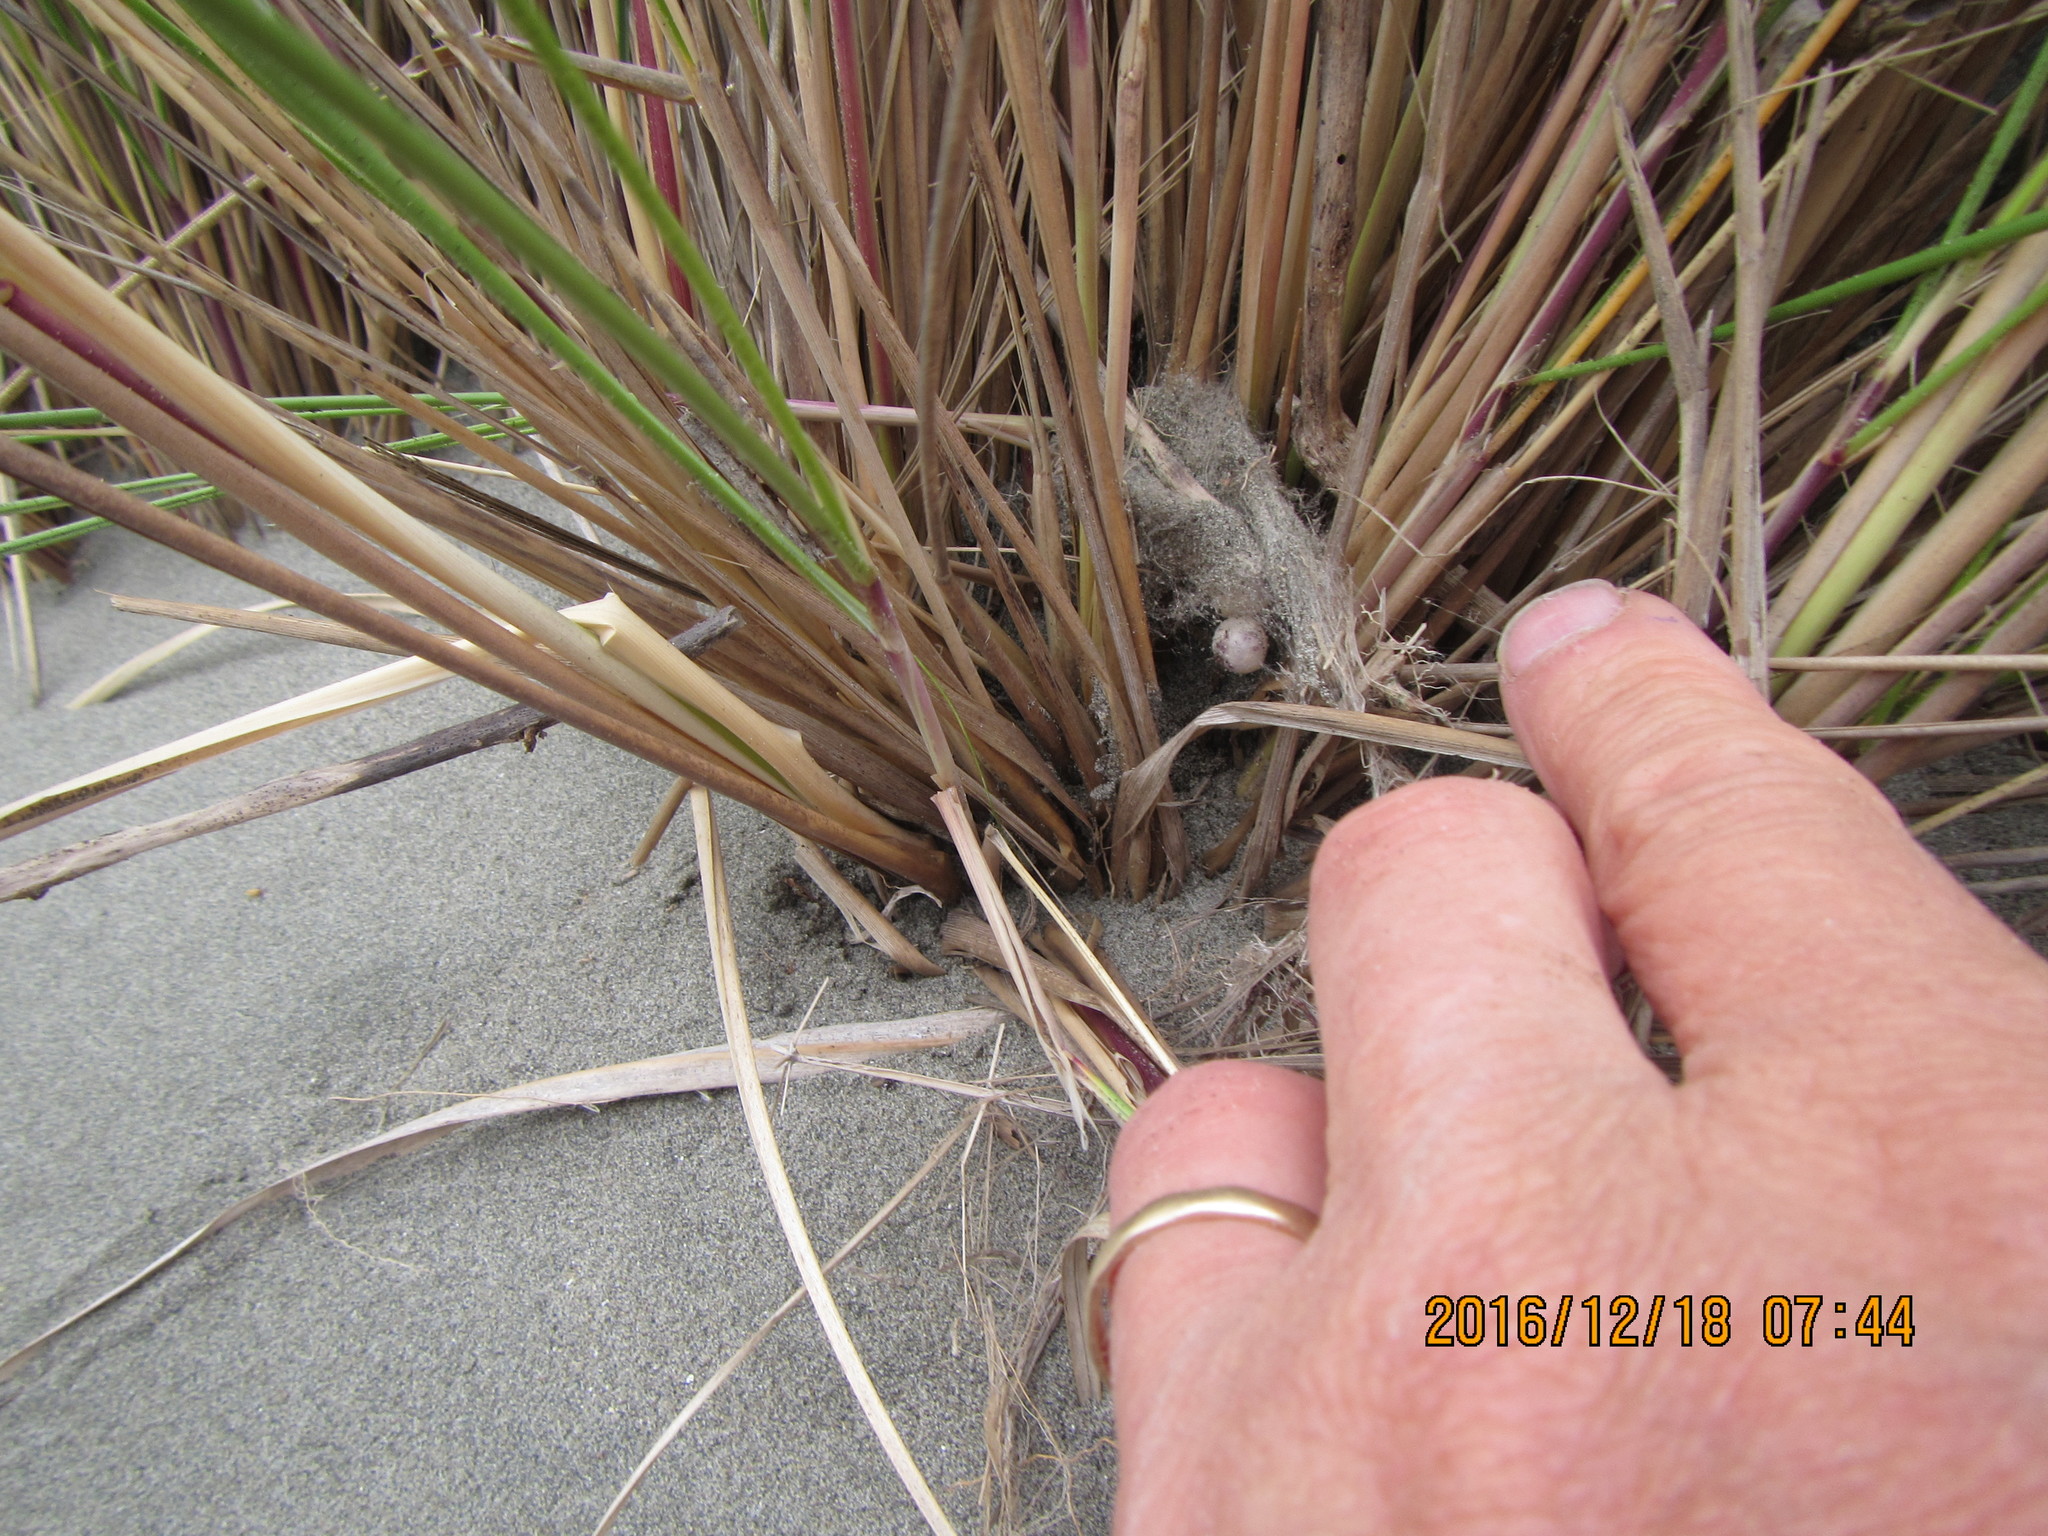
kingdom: Animalia
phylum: Arthropoda
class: Arachnida
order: Araneae
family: Theridiidae
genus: Latrodectus
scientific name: Latrodectus katipo
